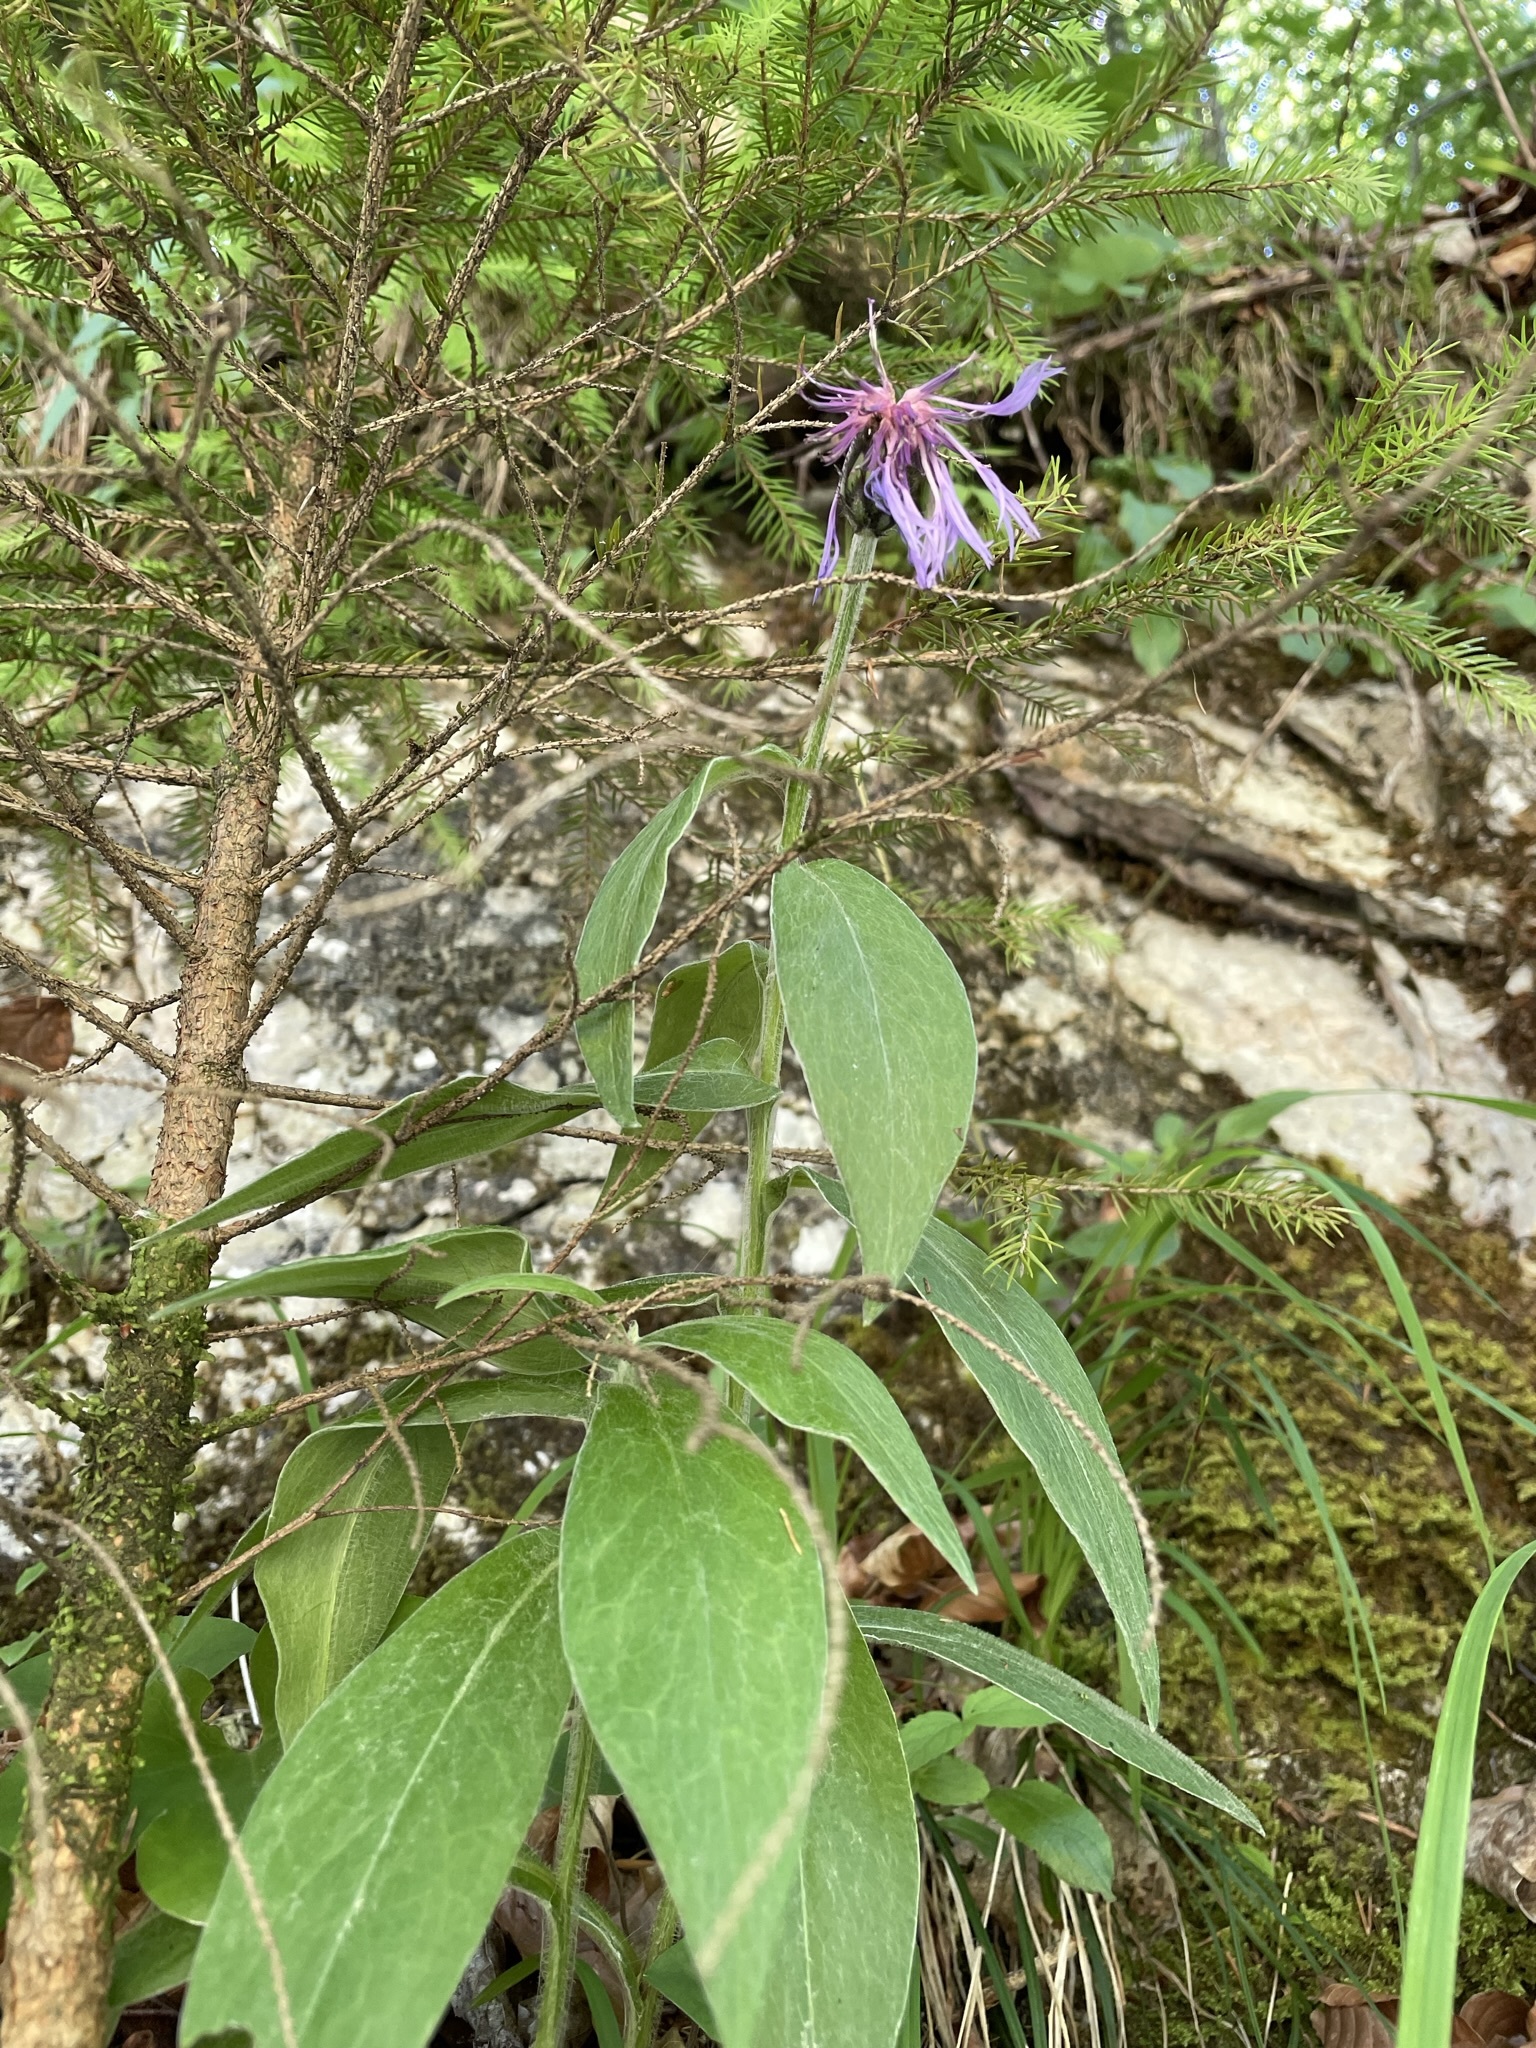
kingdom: Plantae
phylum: Tracheophyta
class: Magnoliopsida
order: Asterales
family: Asteraceae
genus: Centaurea
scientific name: Centaurea montana
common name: Perennial cornflower
